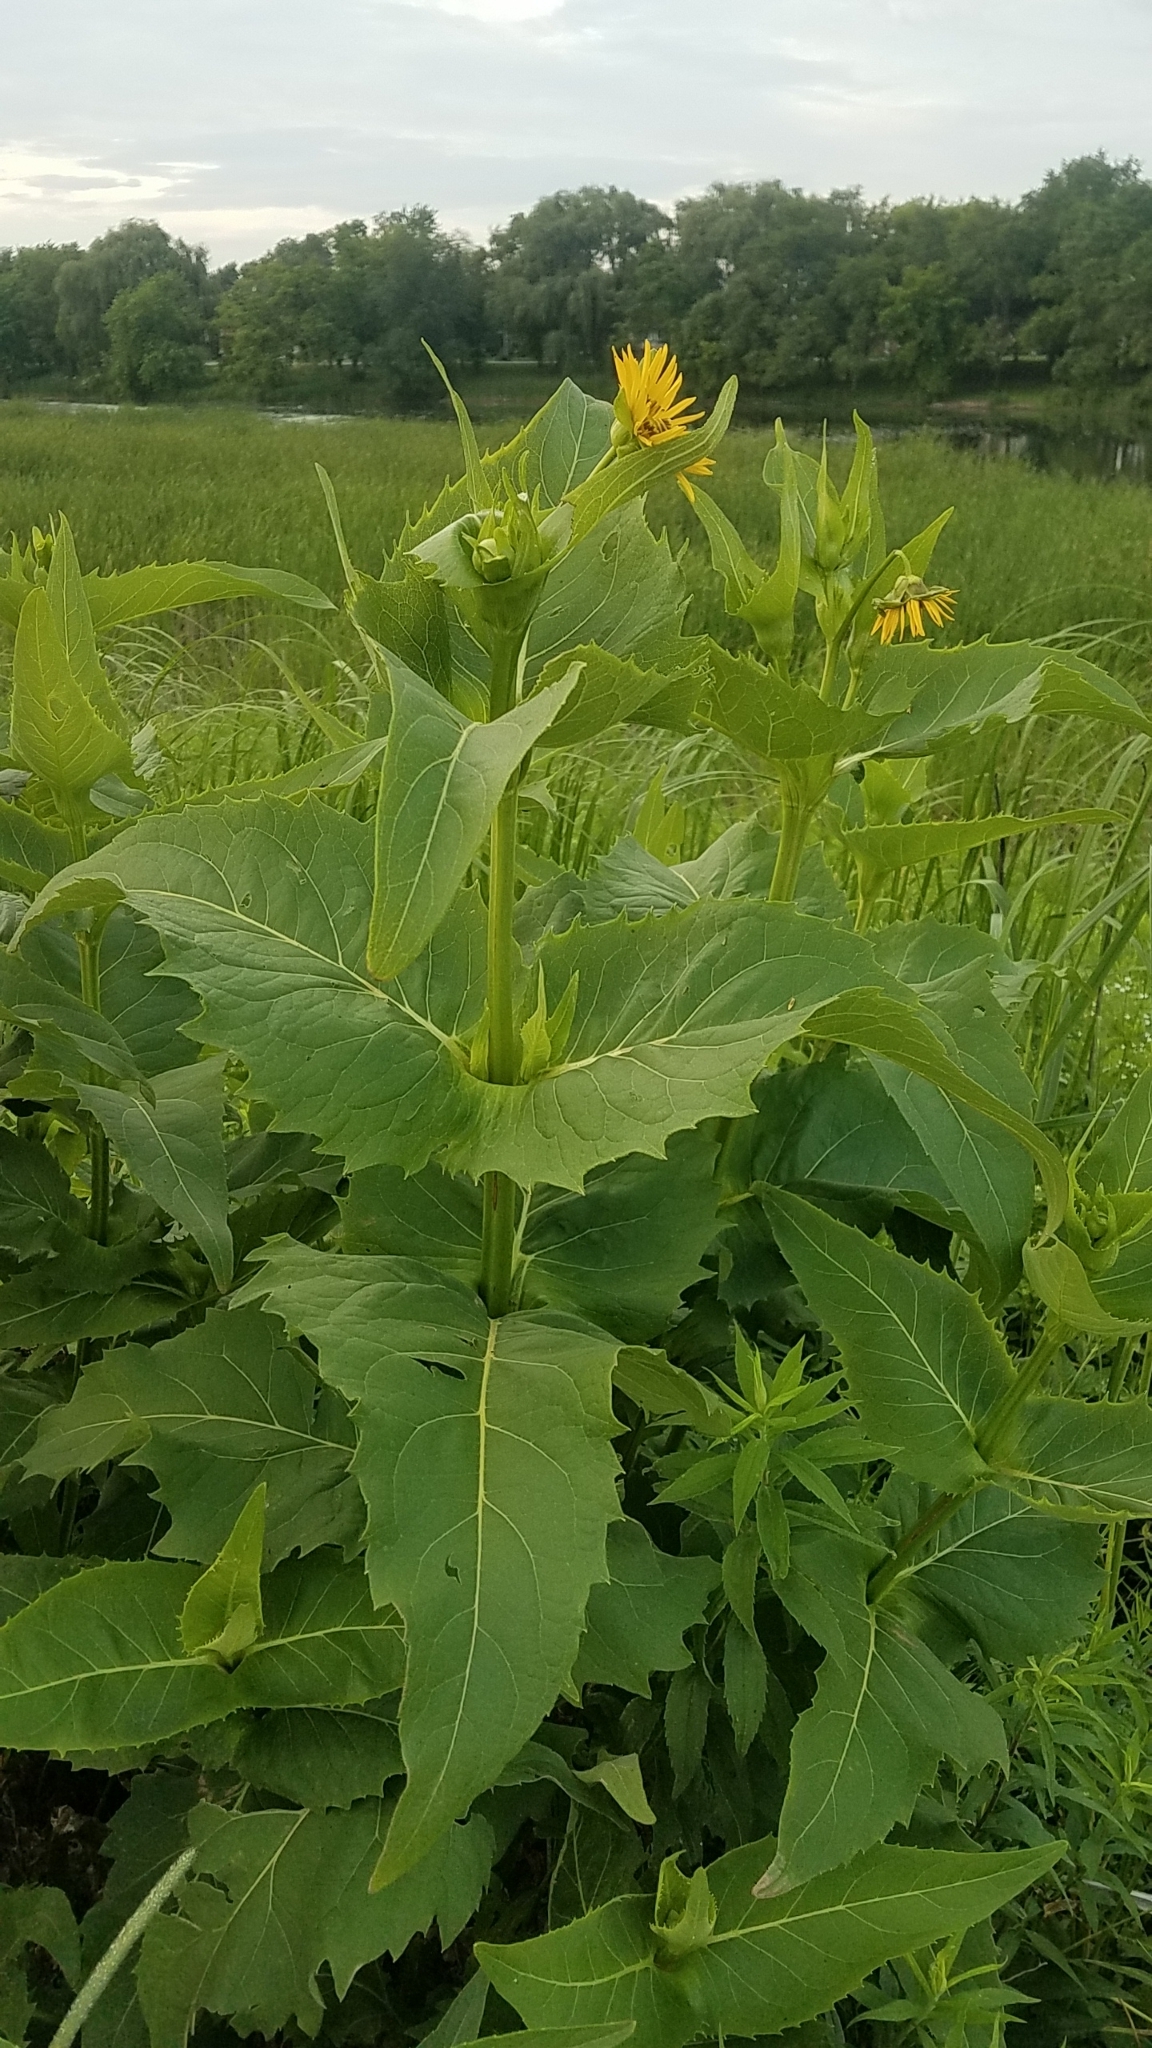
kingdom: Plantae
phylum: Tracheophyta
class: Magnoliopsida
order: Asterales
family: Asteraceae
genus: Silphium
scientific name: Silphium perfoliatum
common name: Cup-plant
